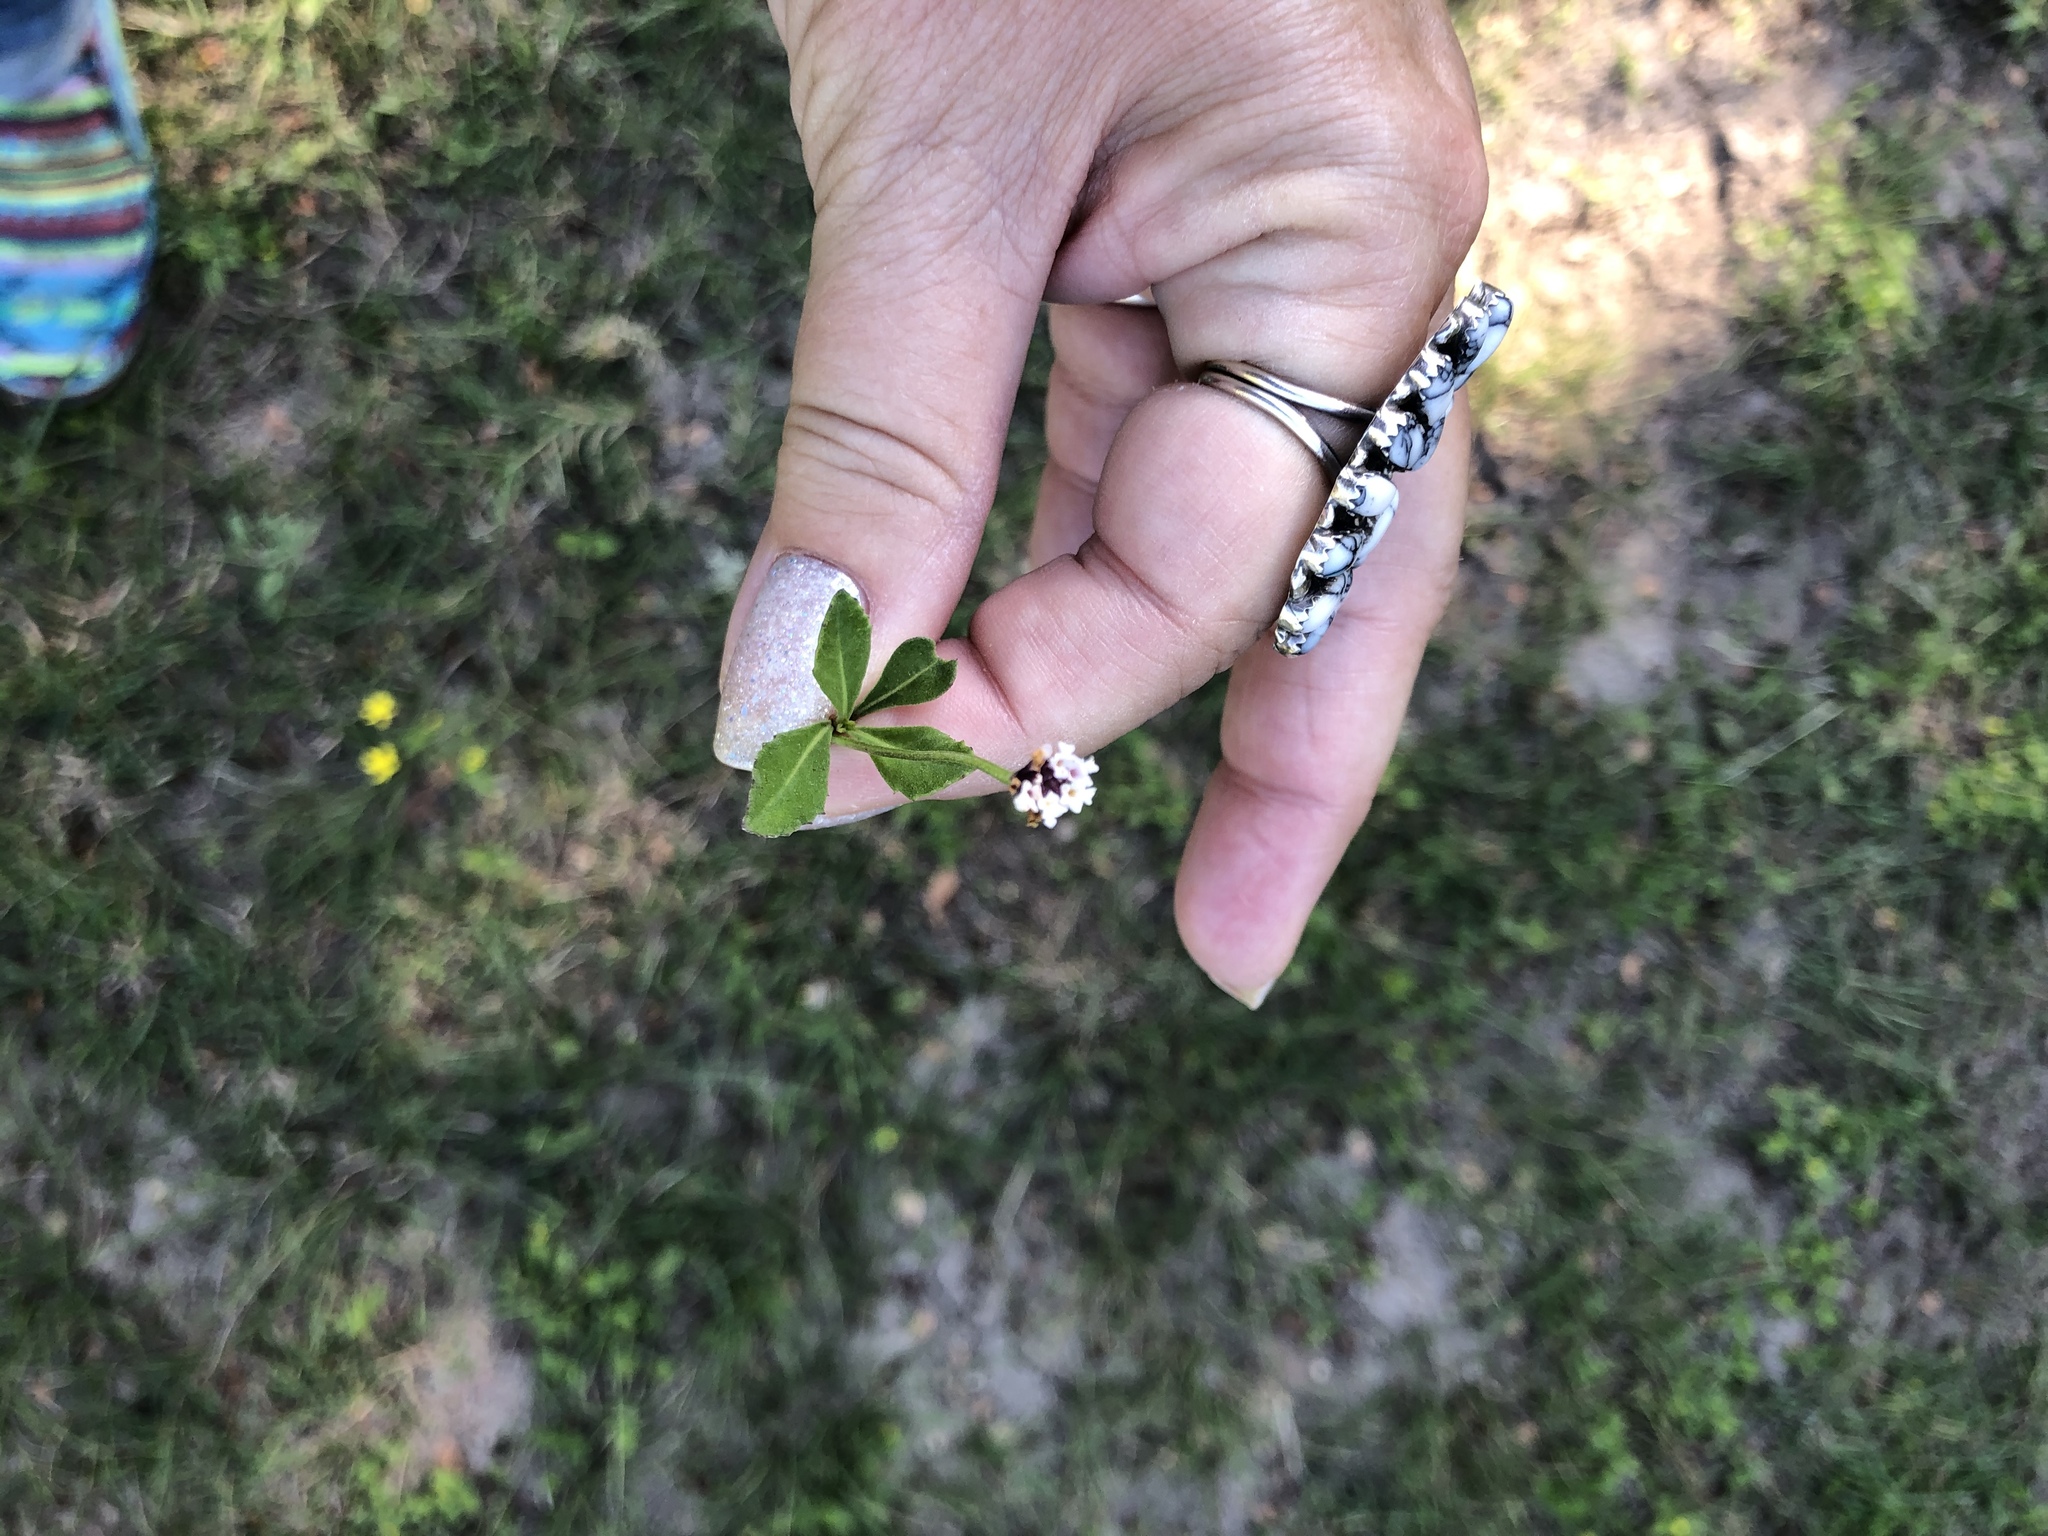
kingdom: Plantae
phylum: Tracheophyta
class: Magnoliopsida
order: Lamiales
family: Verbenaceae
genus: Phyla
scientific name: Phyla nodiflora
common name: Frogfruit
